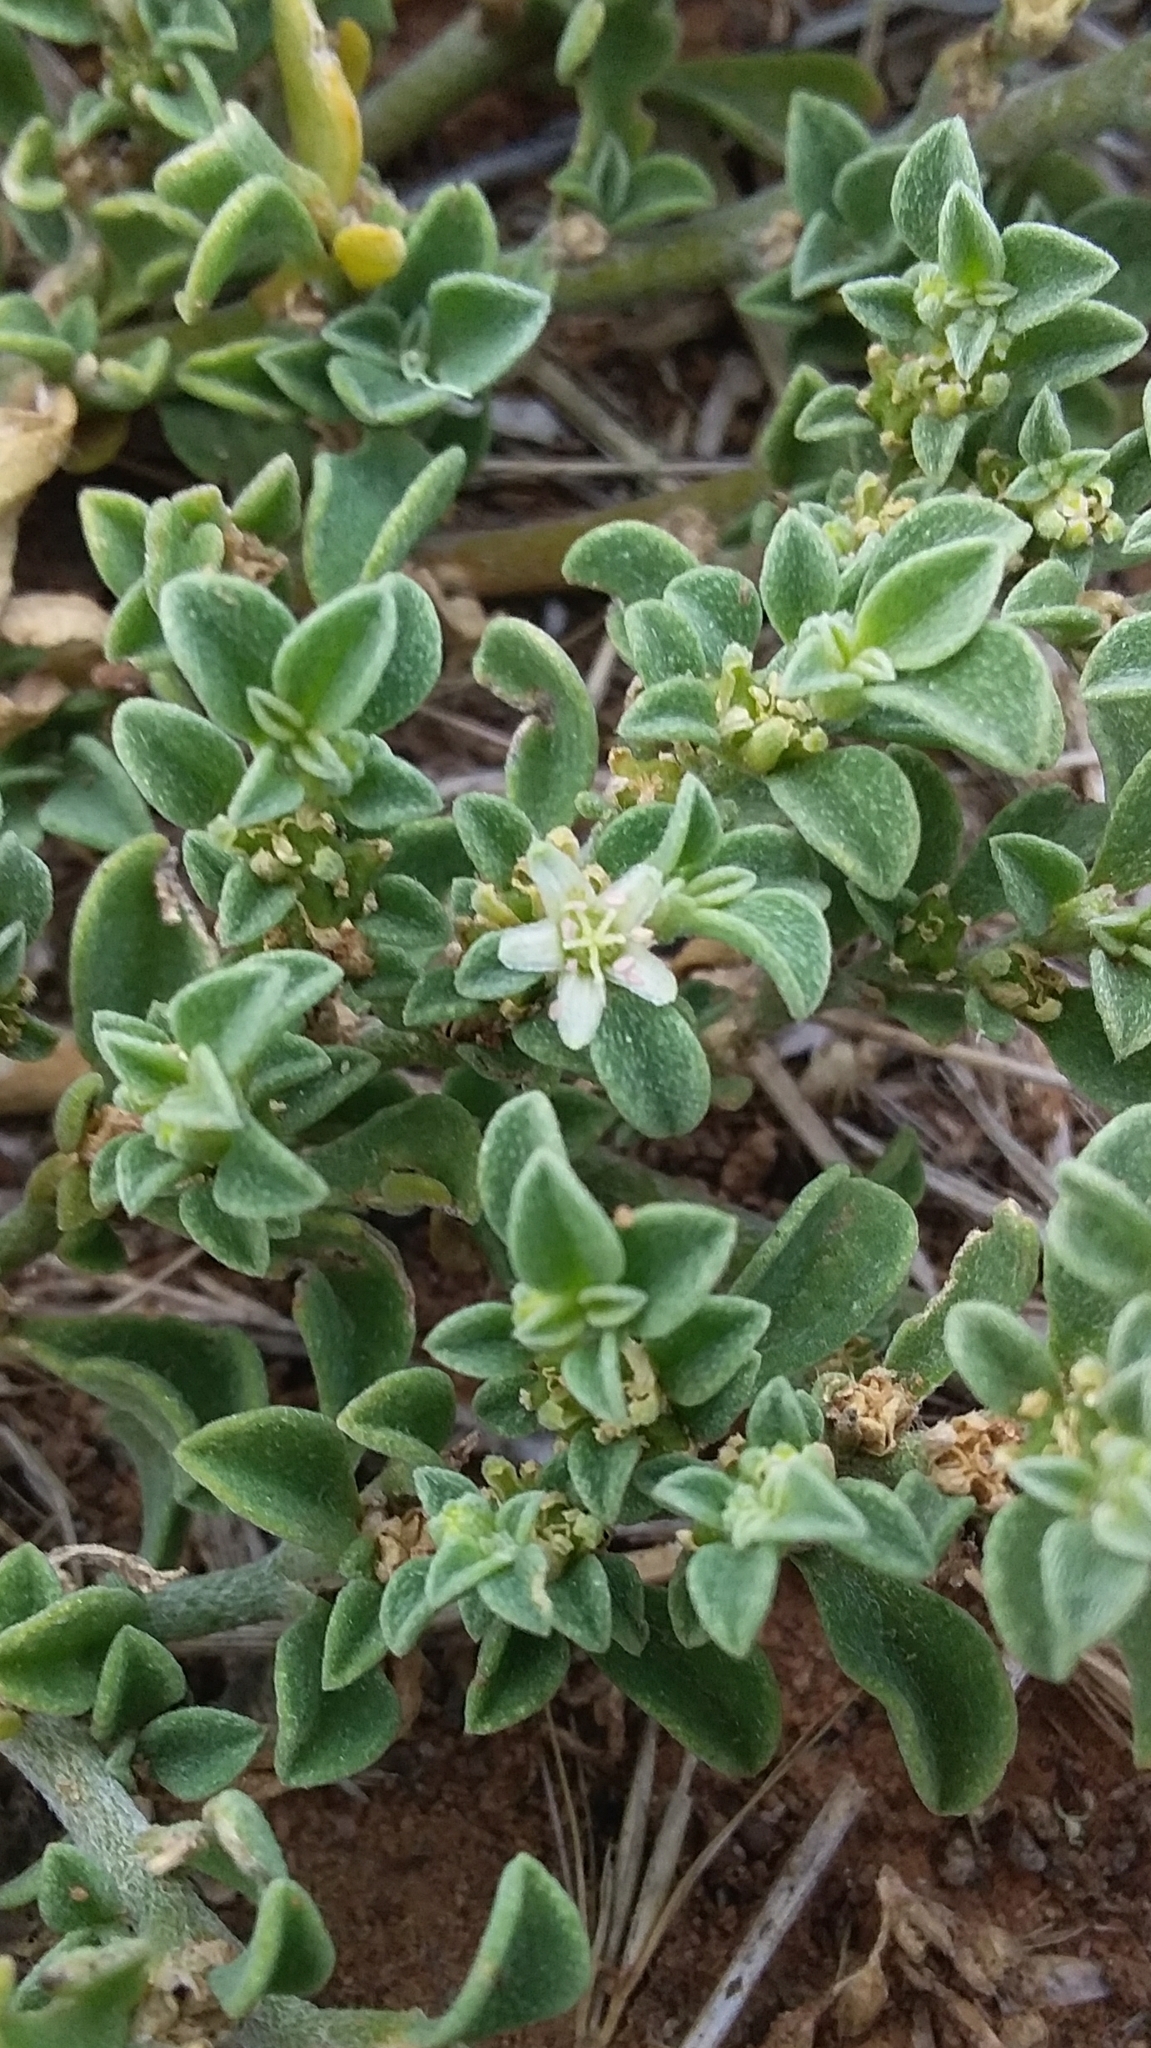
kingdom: Plantae
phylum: Tracheophyta
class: Magnoliopsida
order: Caryophyllales
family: Aizoaceae
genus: Aizoon
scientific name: Aizoon pubescens
